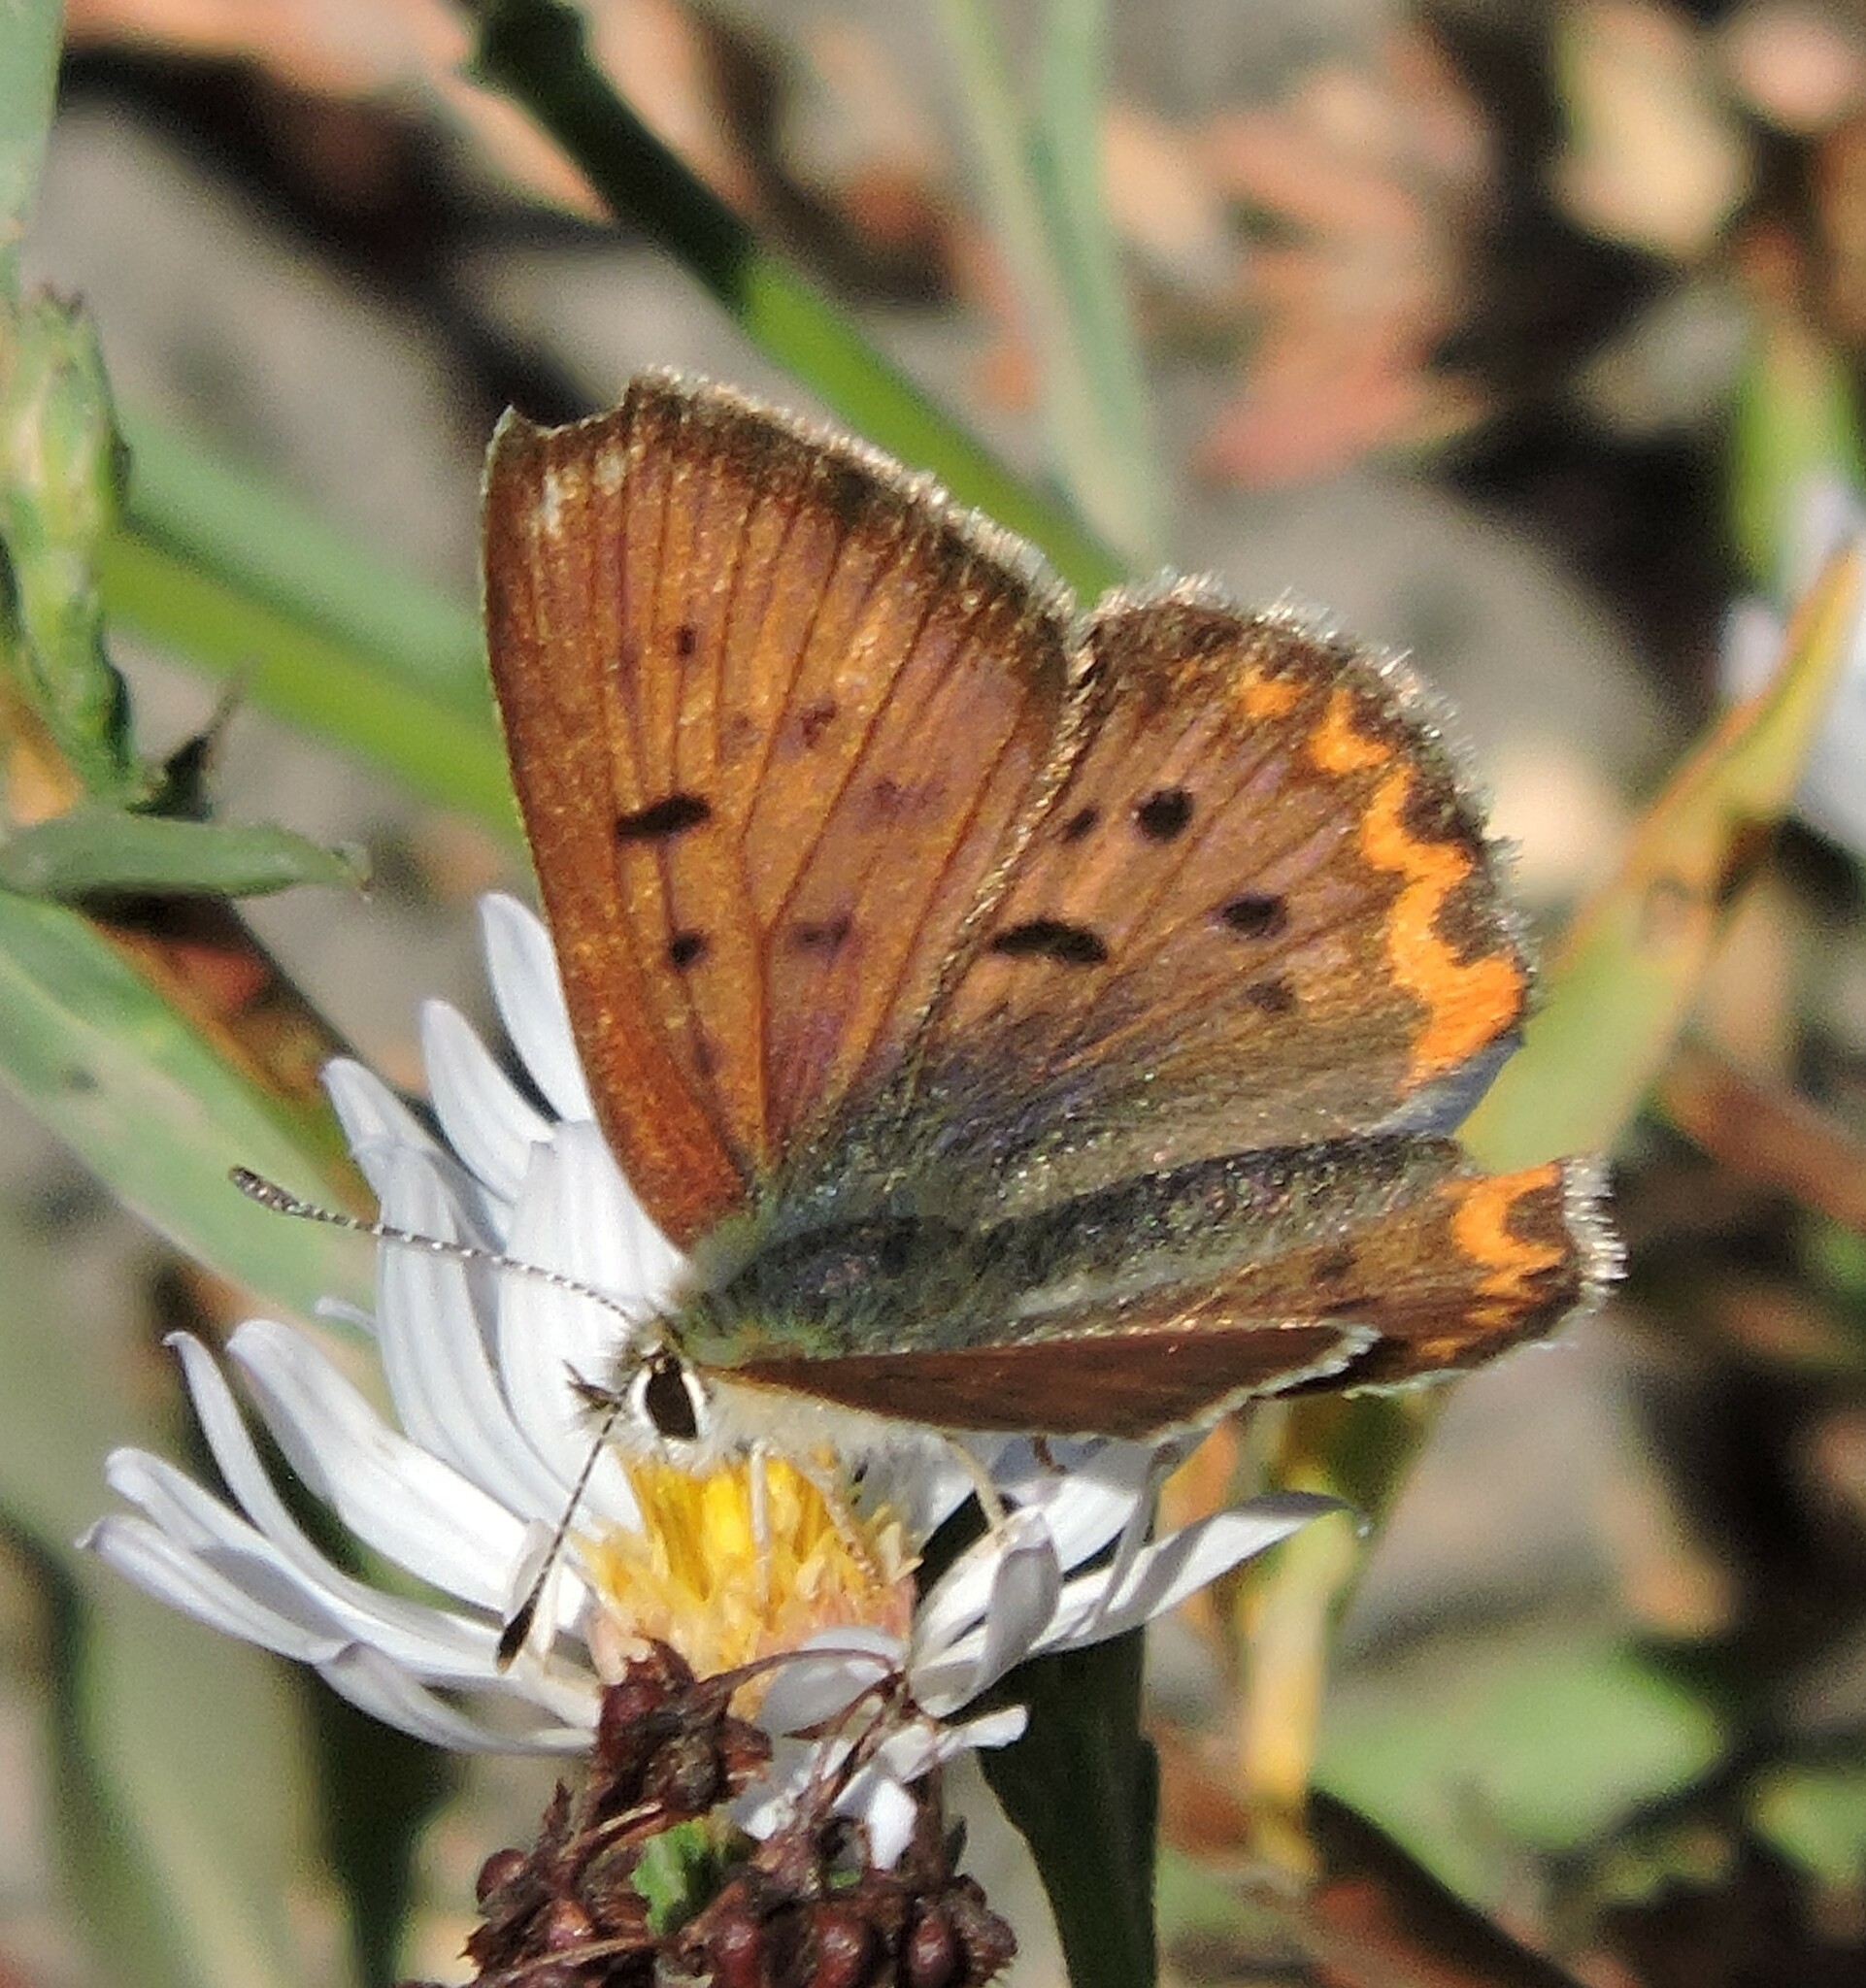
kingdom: Animalia
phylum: Arthropoda
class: Insecta
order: Lepidoptera
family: Lycaenidae
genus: Tharsalea
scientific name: Tharsalea helloides
